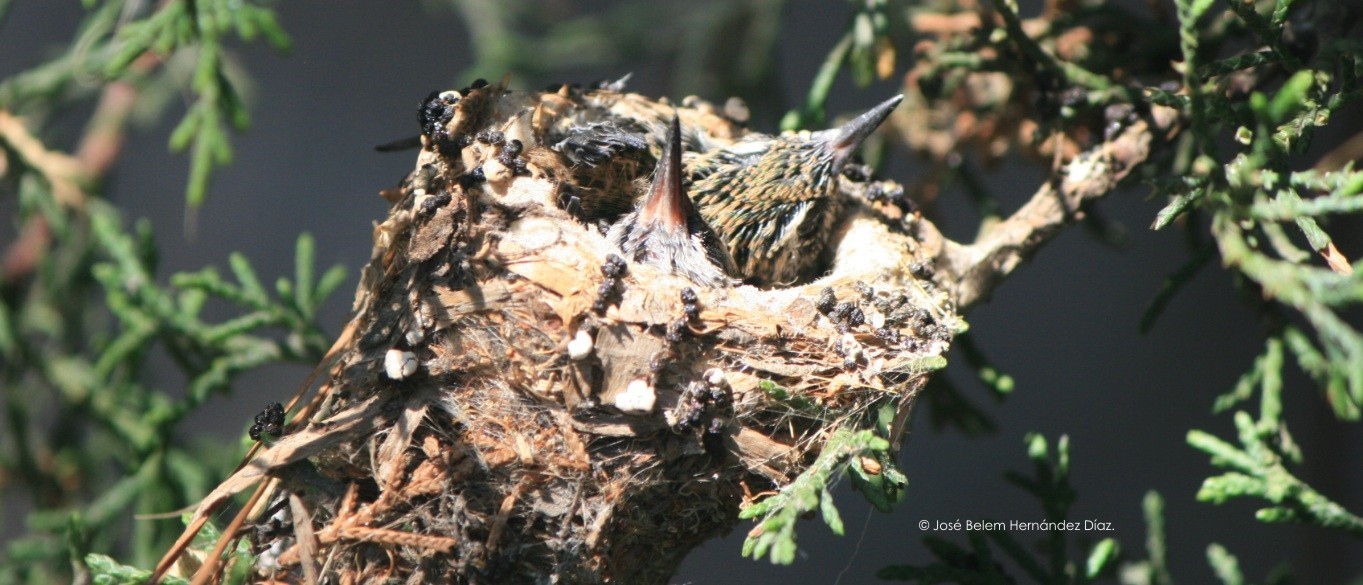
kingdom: Animalia
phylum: Chordata
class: Aves
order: Apodiformes
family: Trochilidae
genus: Cynanthus
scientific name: Cynanthus latirostris
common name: Broad-billed hummingbird
